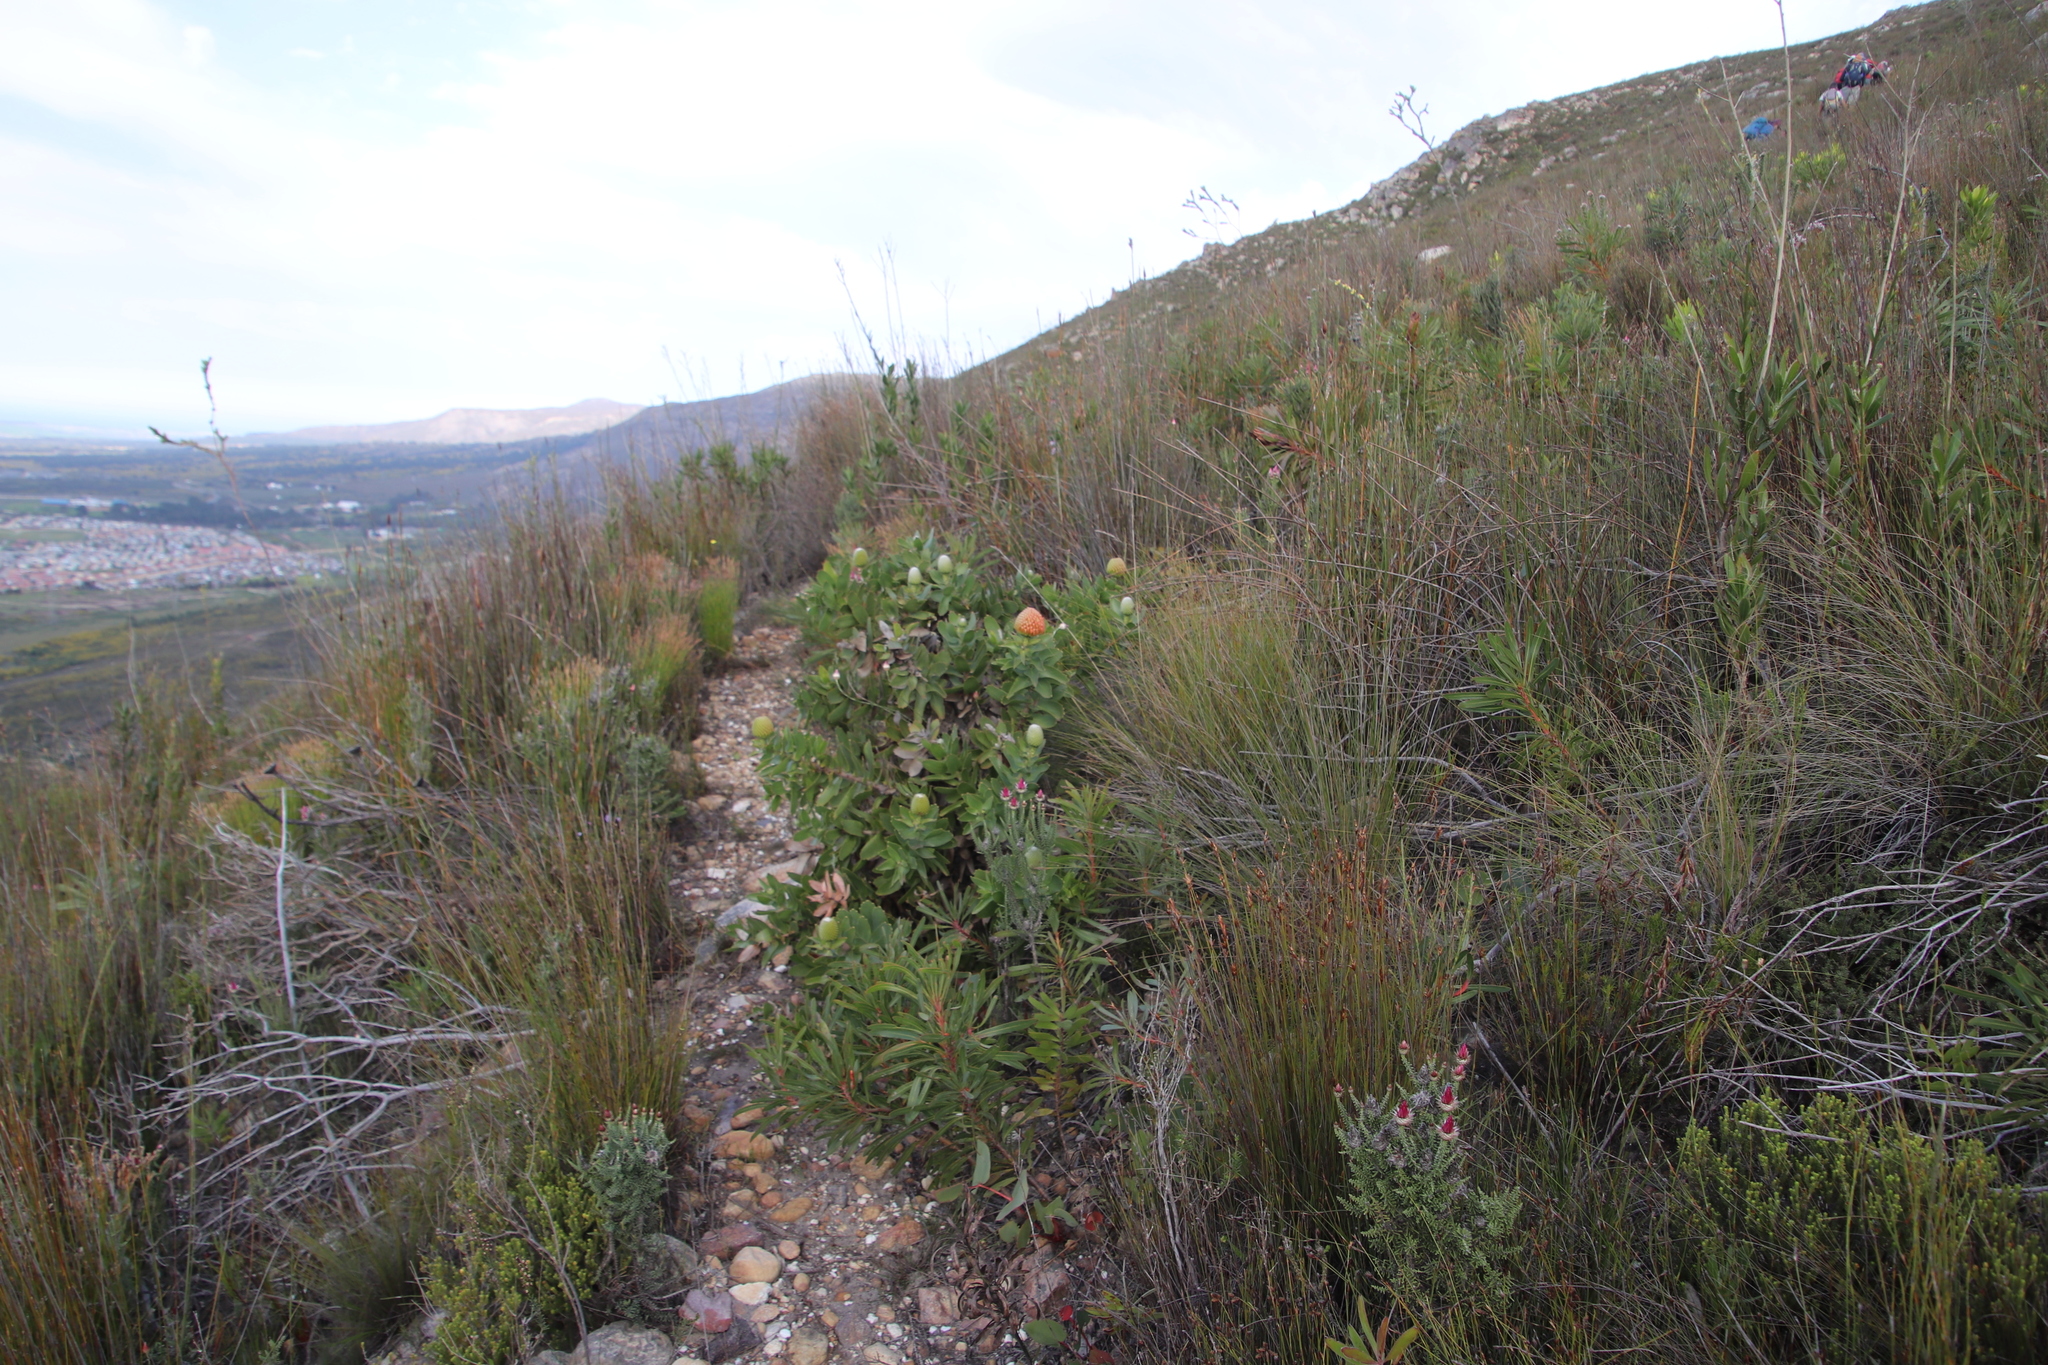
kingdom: Plantae
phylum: Tracheophyta
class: Magnoliopsida
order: Proteales
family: Proteaceae
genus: Leucospermum
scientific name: Leucospermum cordifolium
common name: Red pincushion-protea
